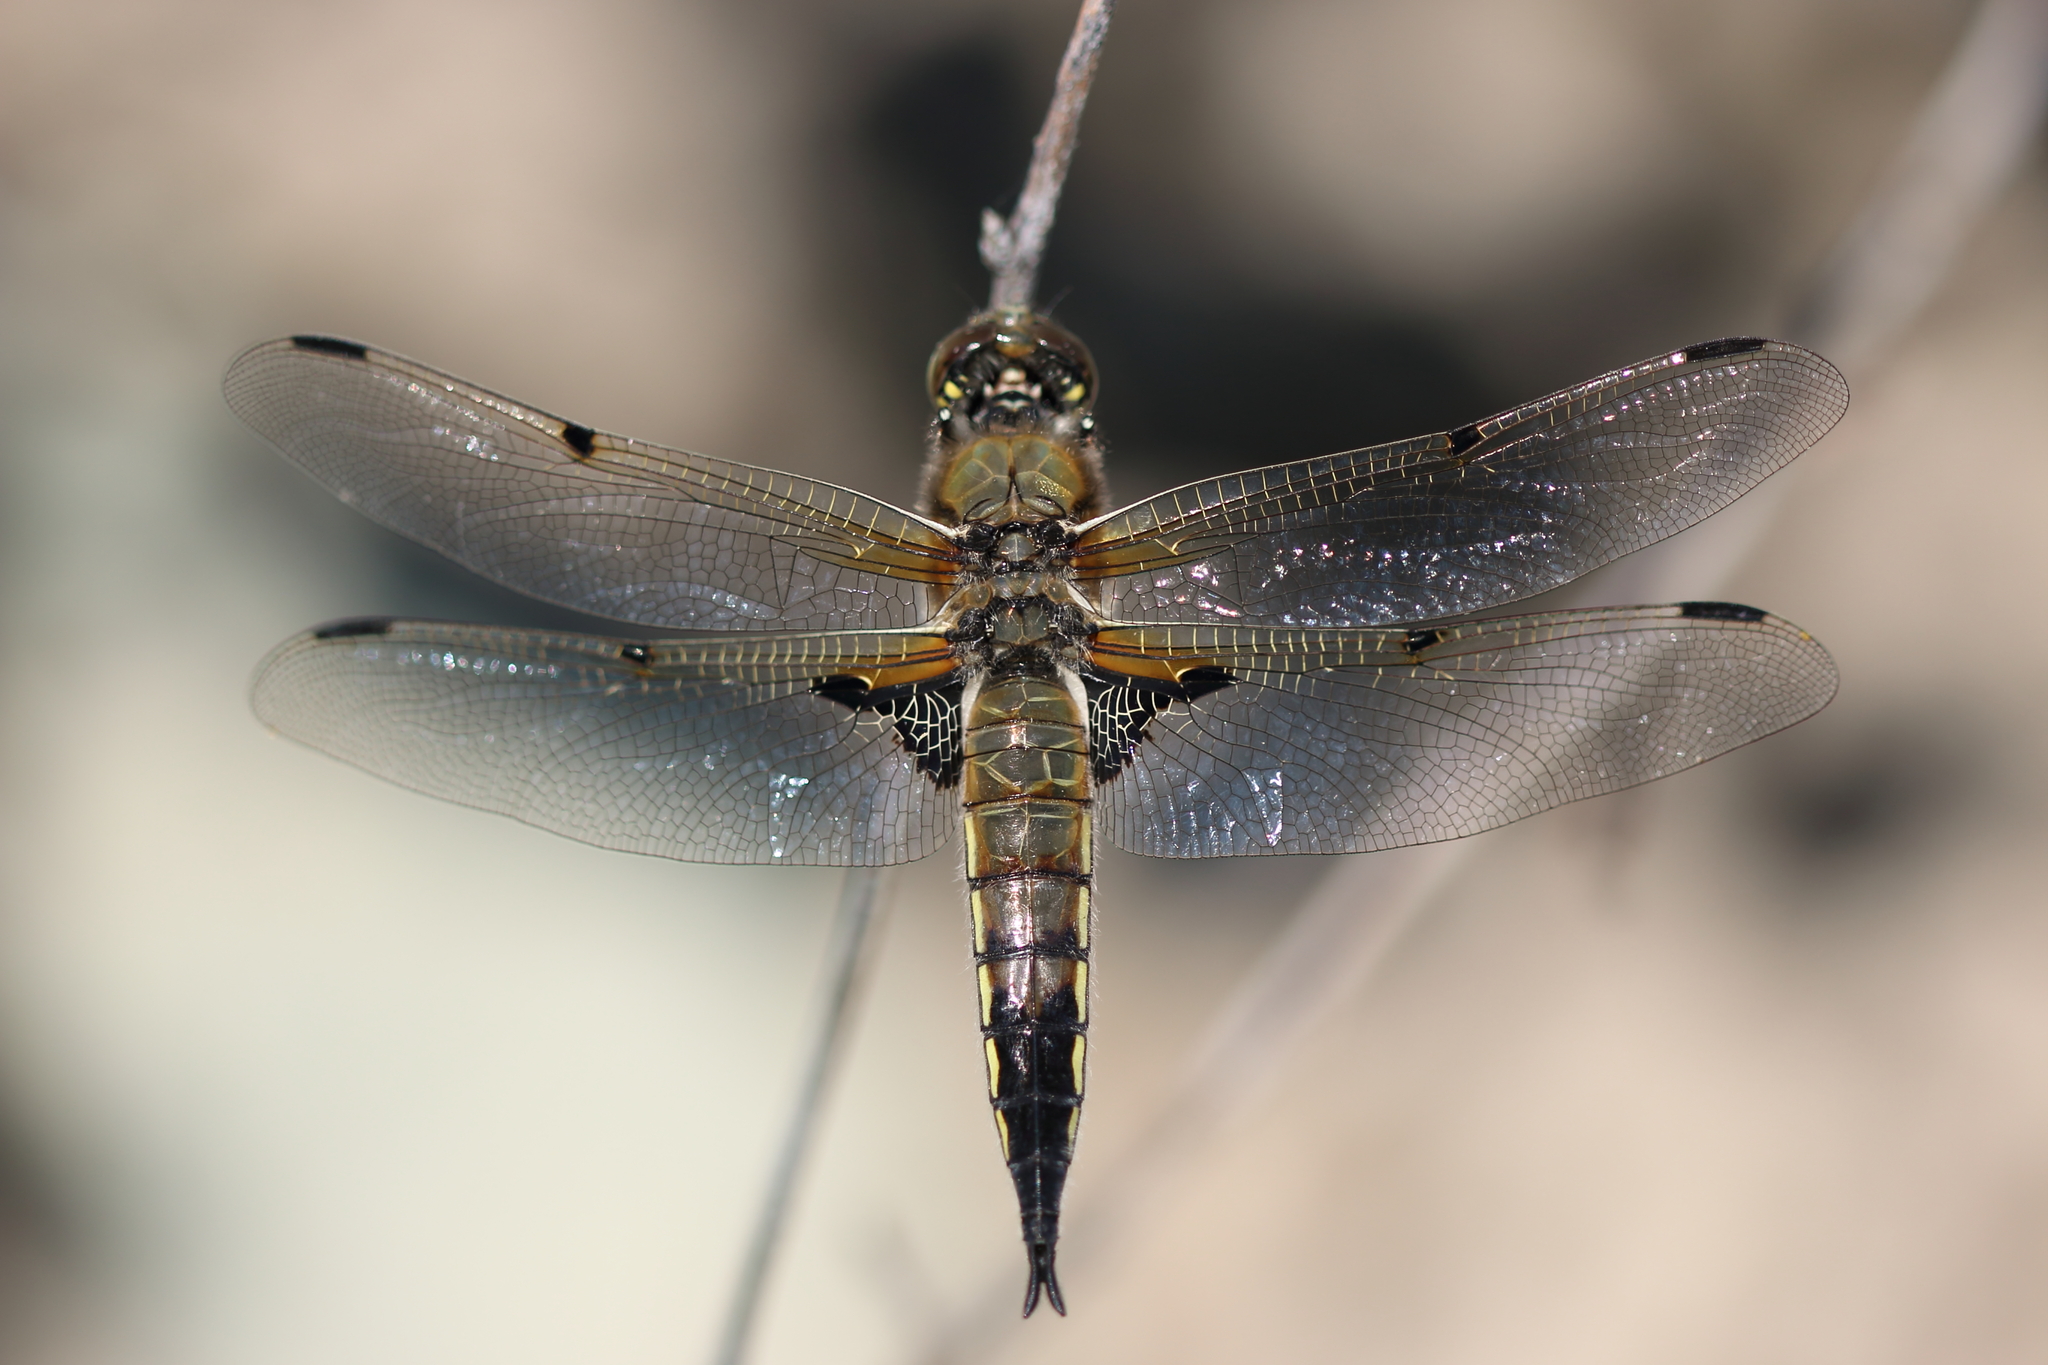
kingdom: Animalia
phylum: Arthropoda
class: Insecta
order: Odonata
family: Libellulidae
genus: Libellula
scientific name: Libellula quadrimaculata
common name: Four-spotted chaser
